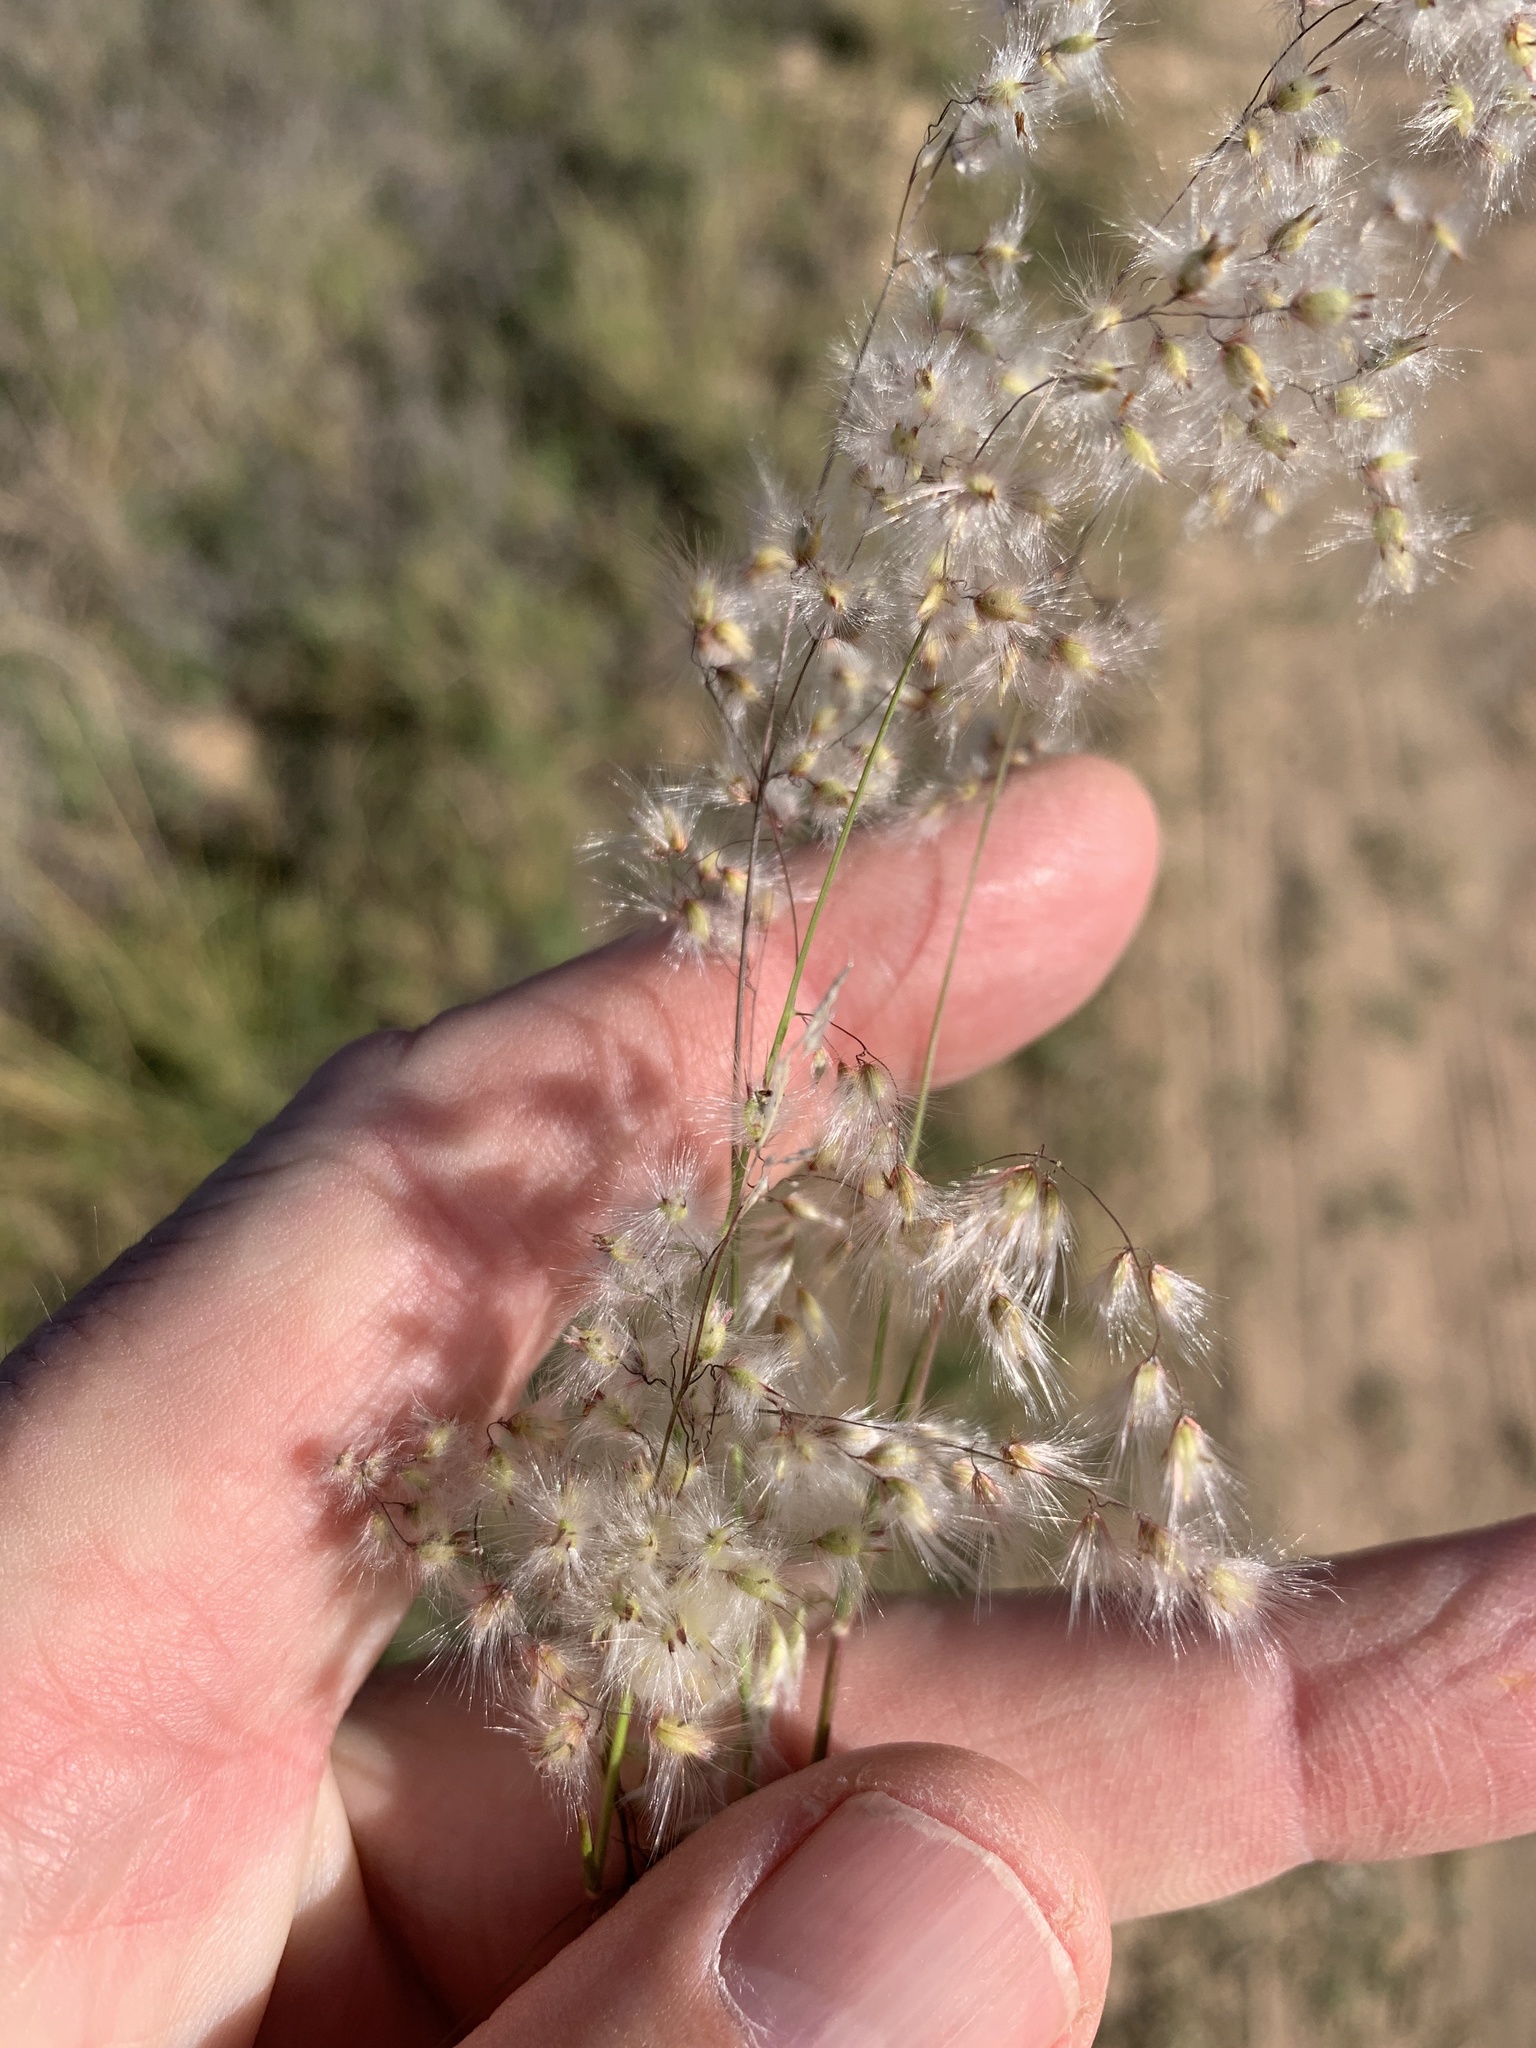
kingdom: Plantae
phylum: Tracheophyta
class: Liliopsida
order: Poales
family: Poaceae
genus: Melinis
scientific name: Melinis repens
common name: Rose natal grass
